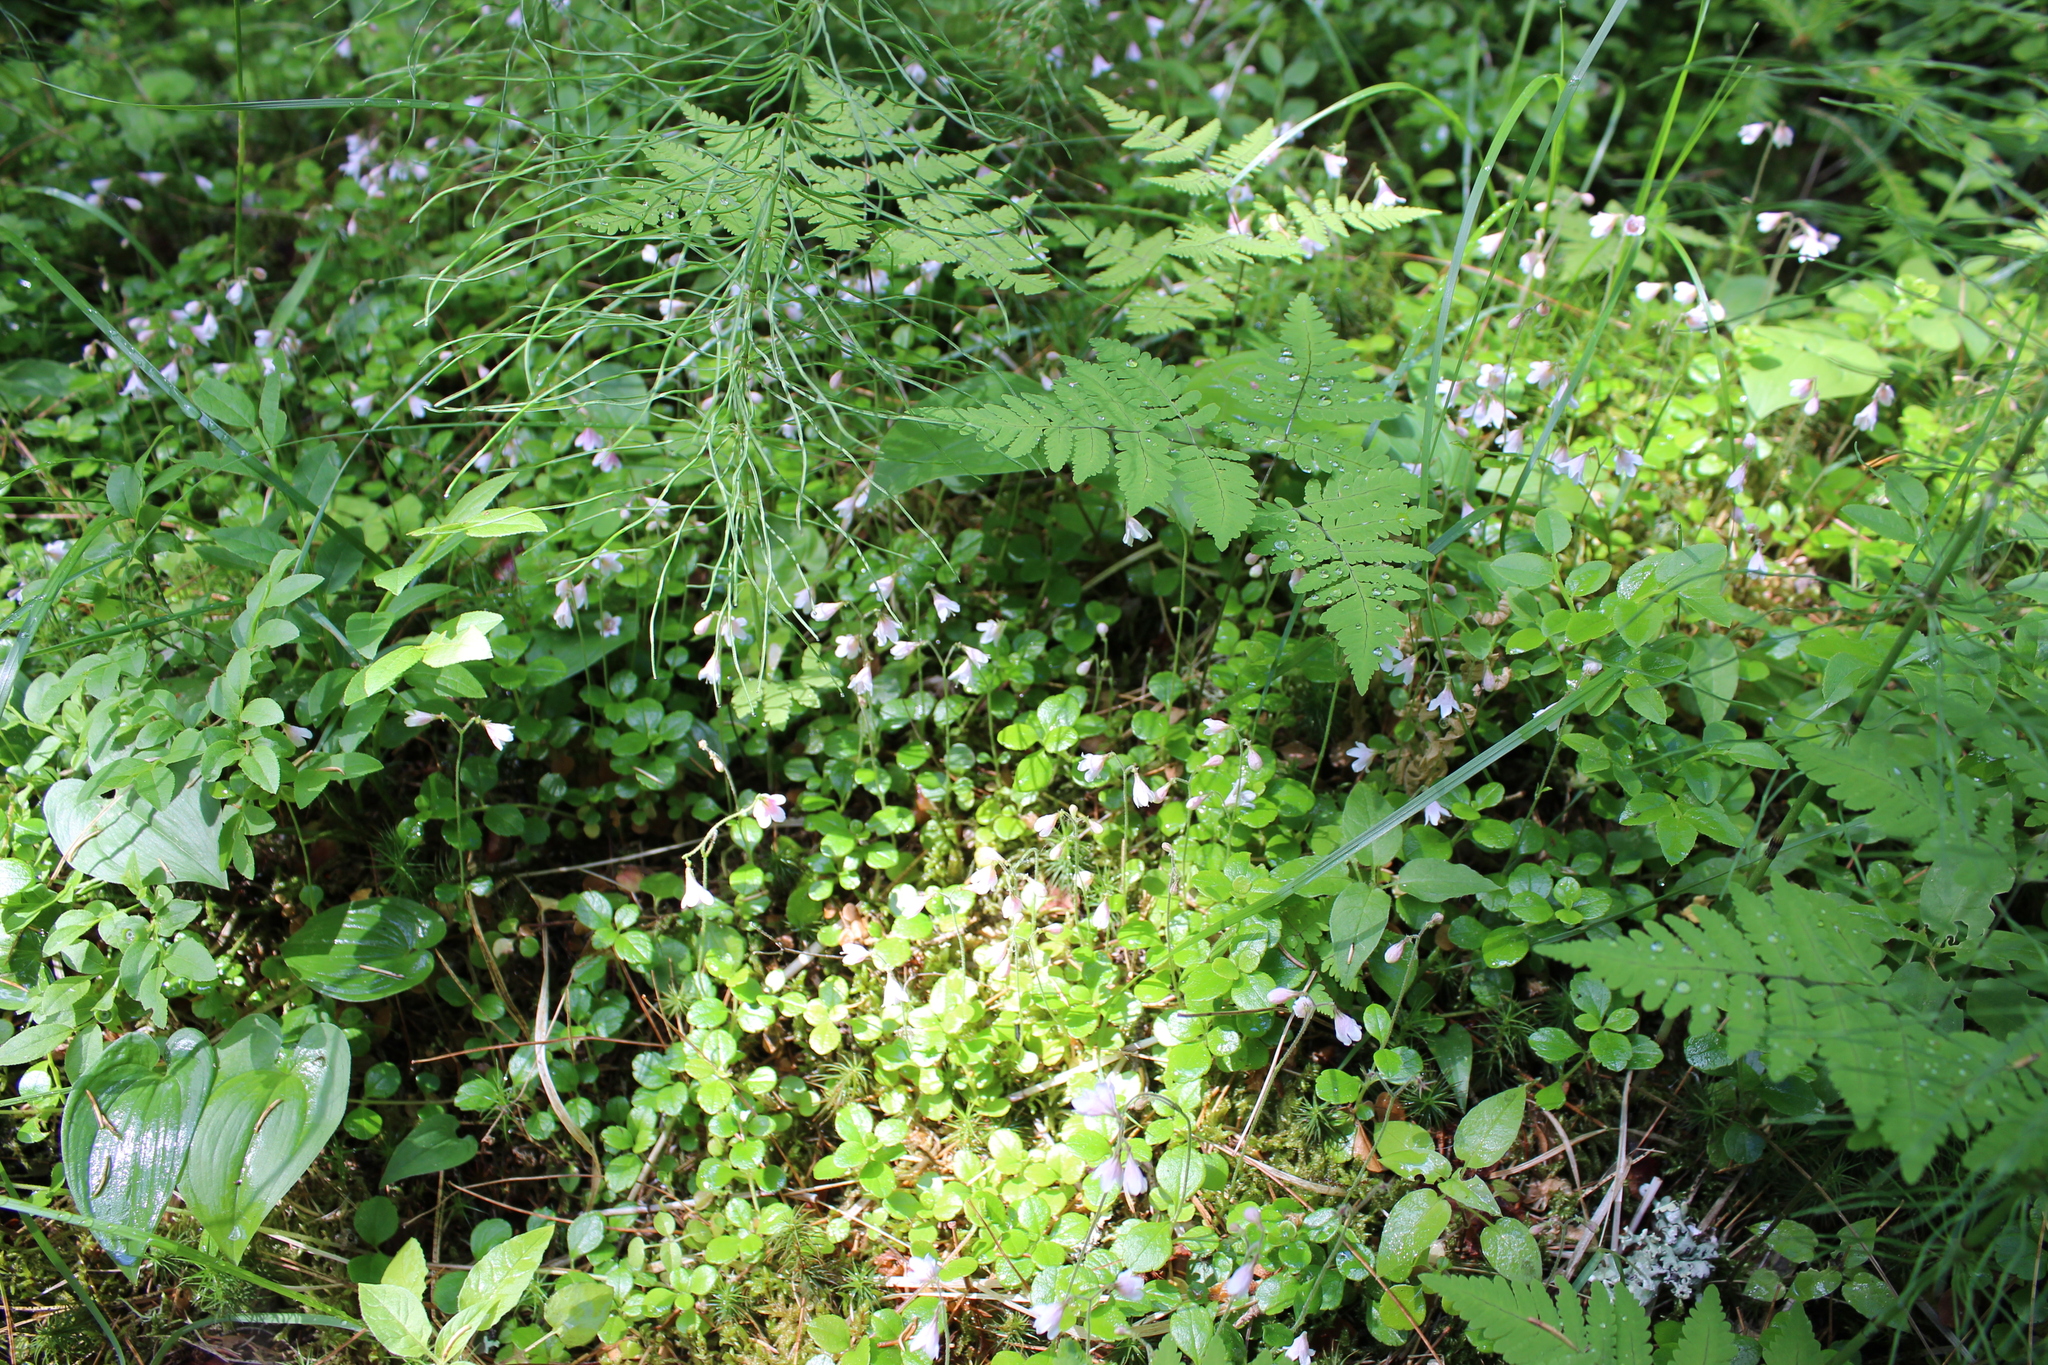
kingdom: Plantae
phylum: Tracheophyta
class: Magnoliopsida
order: Dipsacales
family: Caprifoliaceae
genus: Linnaea
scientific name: Linnaea borealis
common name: Twinflower
